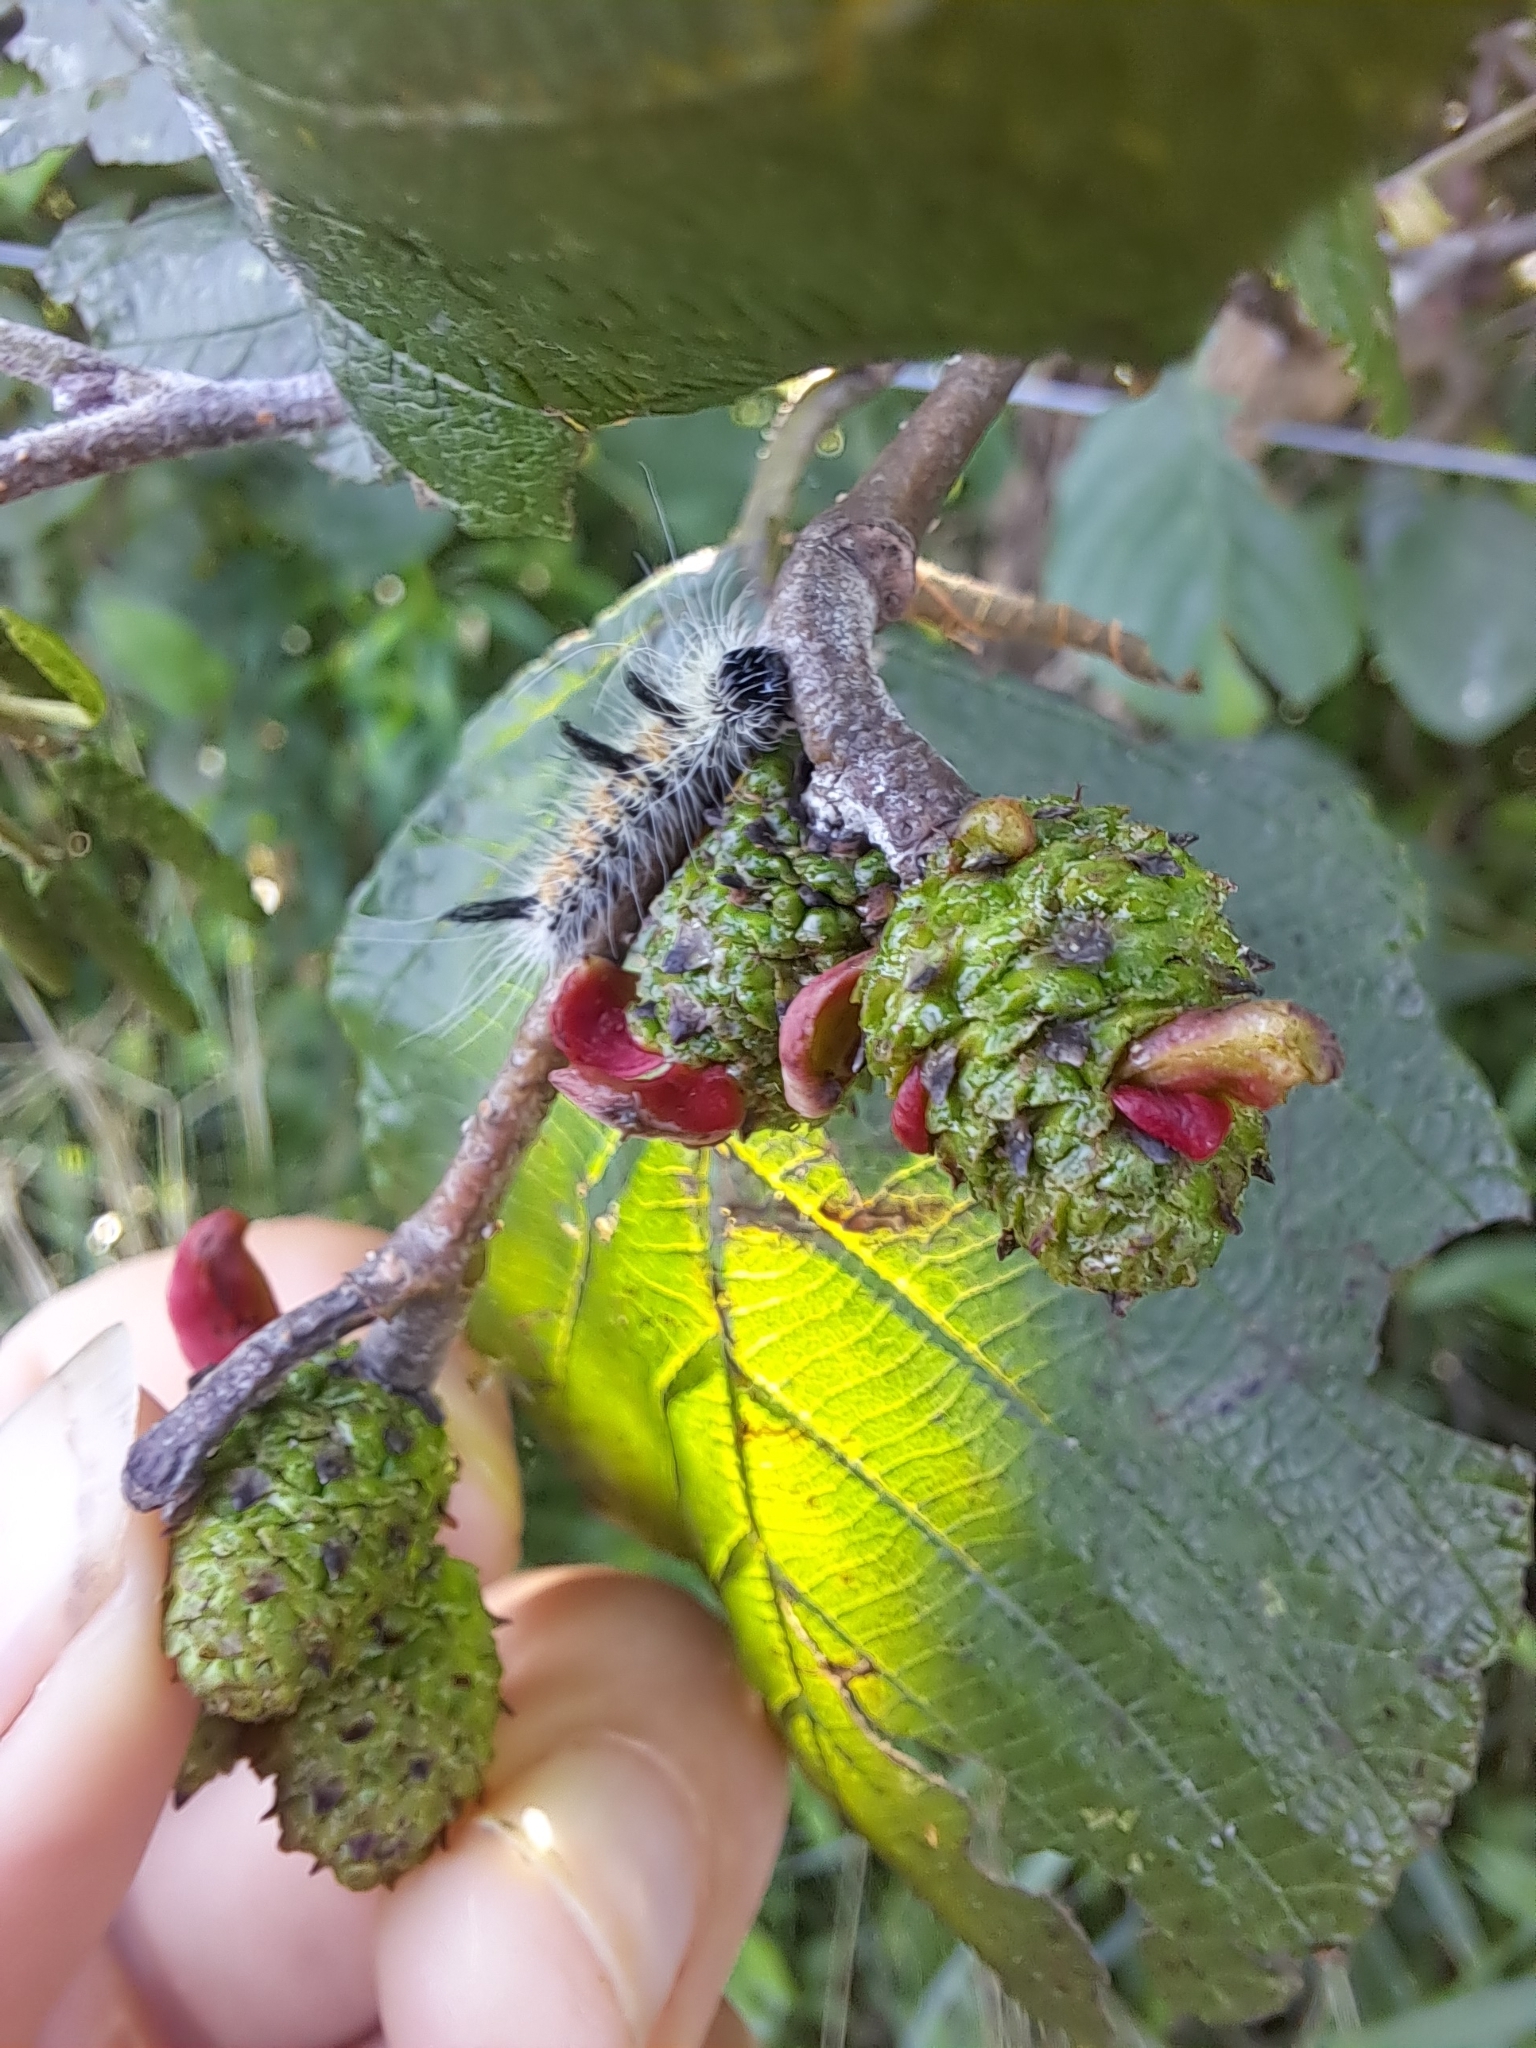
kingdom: Animalia
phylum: Arthropoda
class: Insecta
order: Lepidoptera
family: Noctuidae
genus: Acronicta
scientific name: Acronicta insita
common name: Large gray dagger
